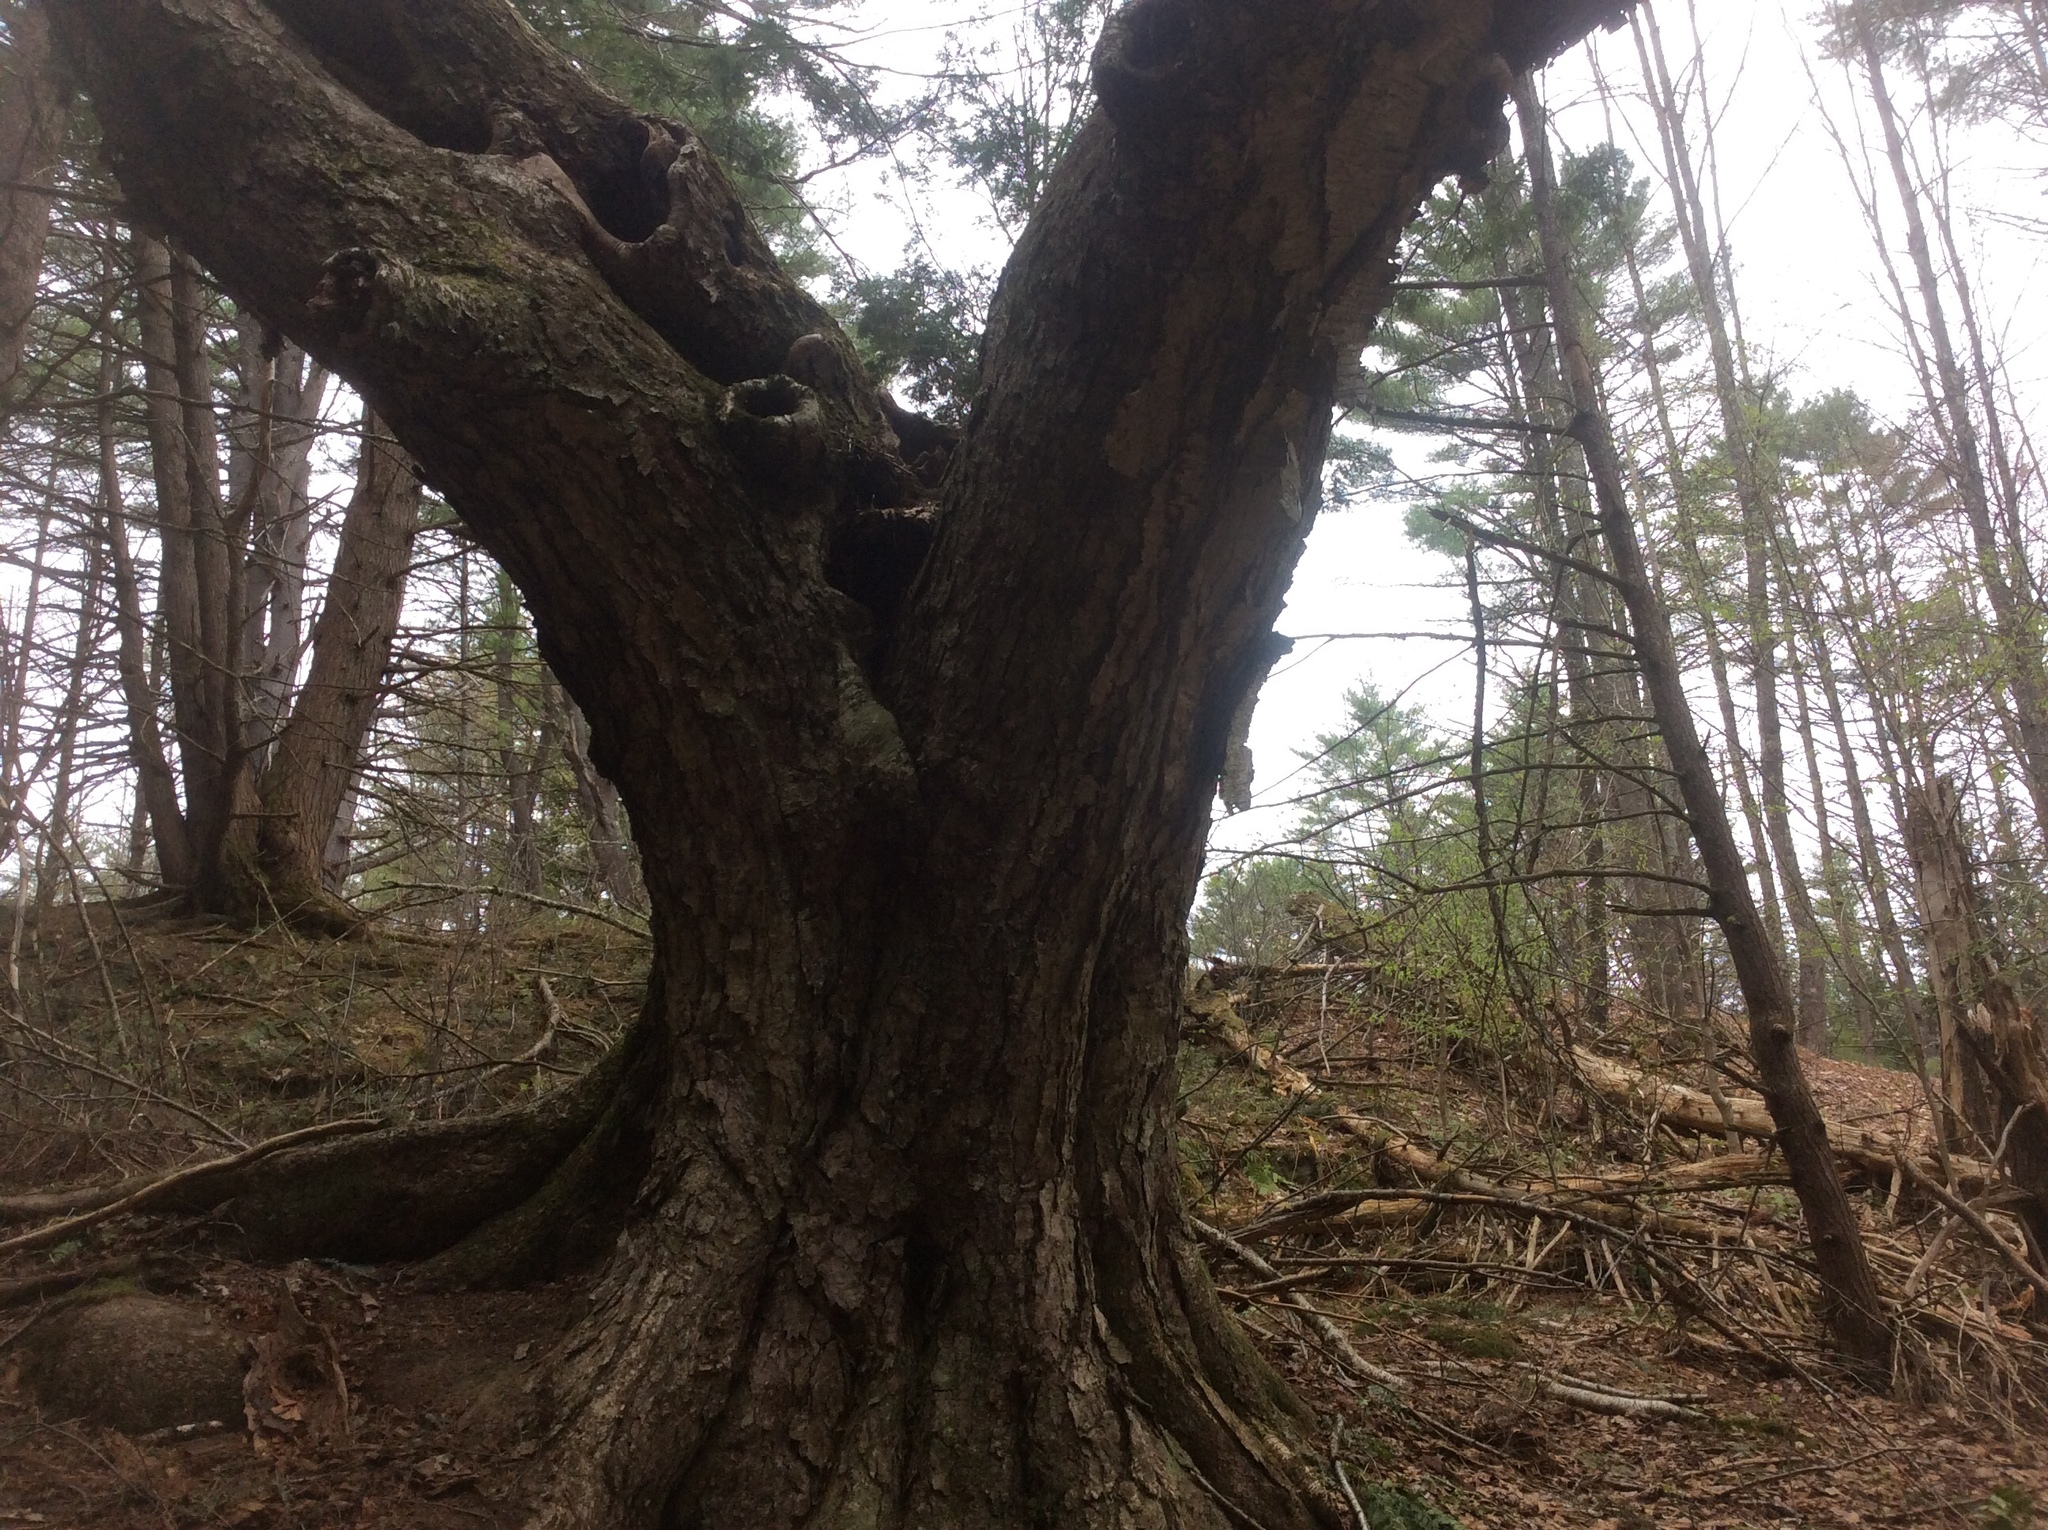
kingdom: Animalia
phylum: Chordata
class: Mammalia
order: Rodentia
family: Erethizontidae
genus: Erethizon
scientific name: Erethizon dorsatus
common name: North american porcupine
